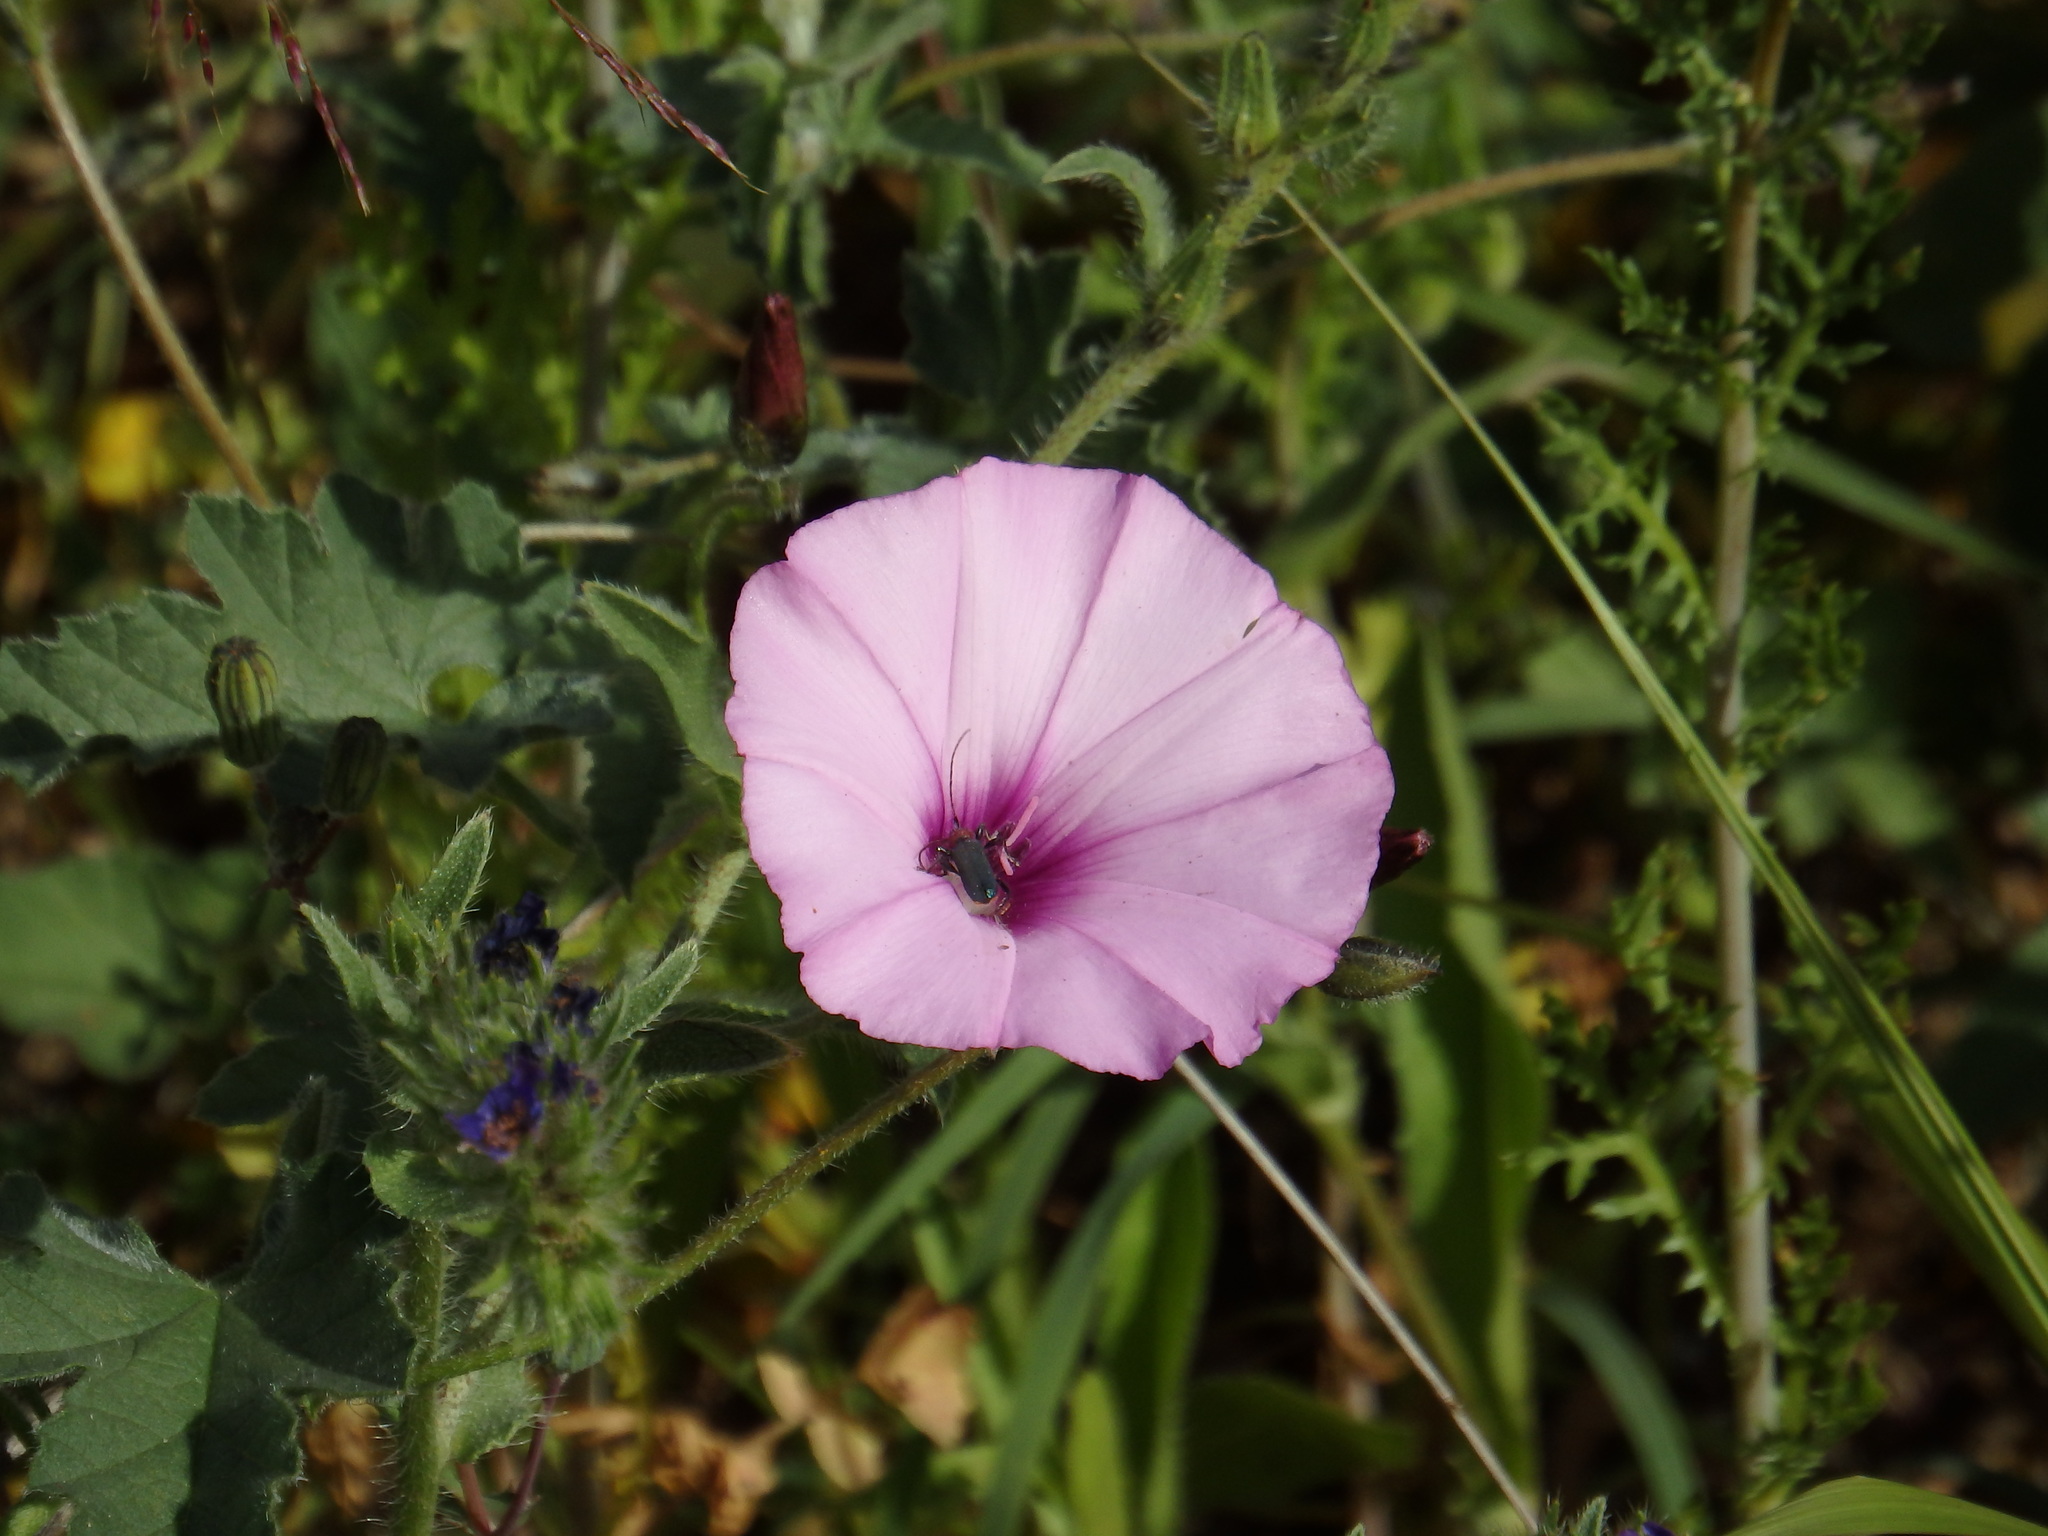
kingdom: Plantae
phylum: Tracheophyta
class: Magnoliopsida
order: Solanales
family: Convolvulaceae
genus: Convolvulus
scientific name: Convolvulus althaeoides
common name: Mallow bindweed
